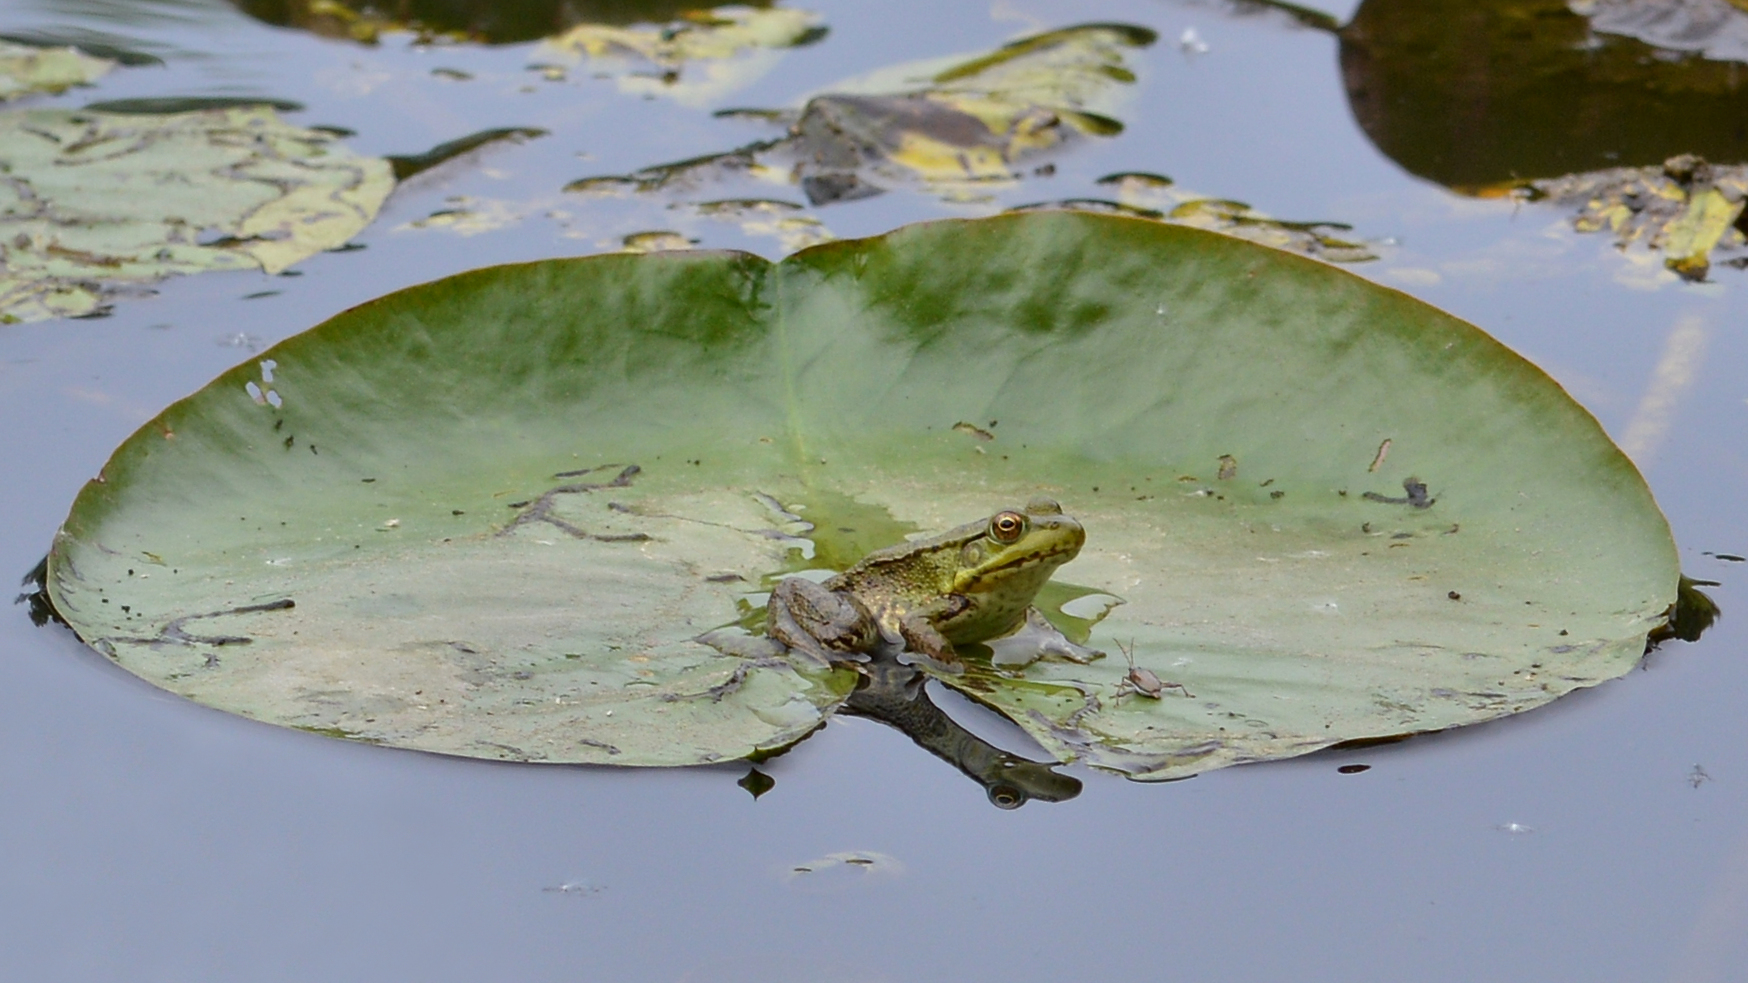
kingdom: Animalia
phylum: Chordata
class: Amphibia
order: Anura
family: Ranidae
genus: Lithobates
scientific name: Lithobates clamitans
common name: Green frog
